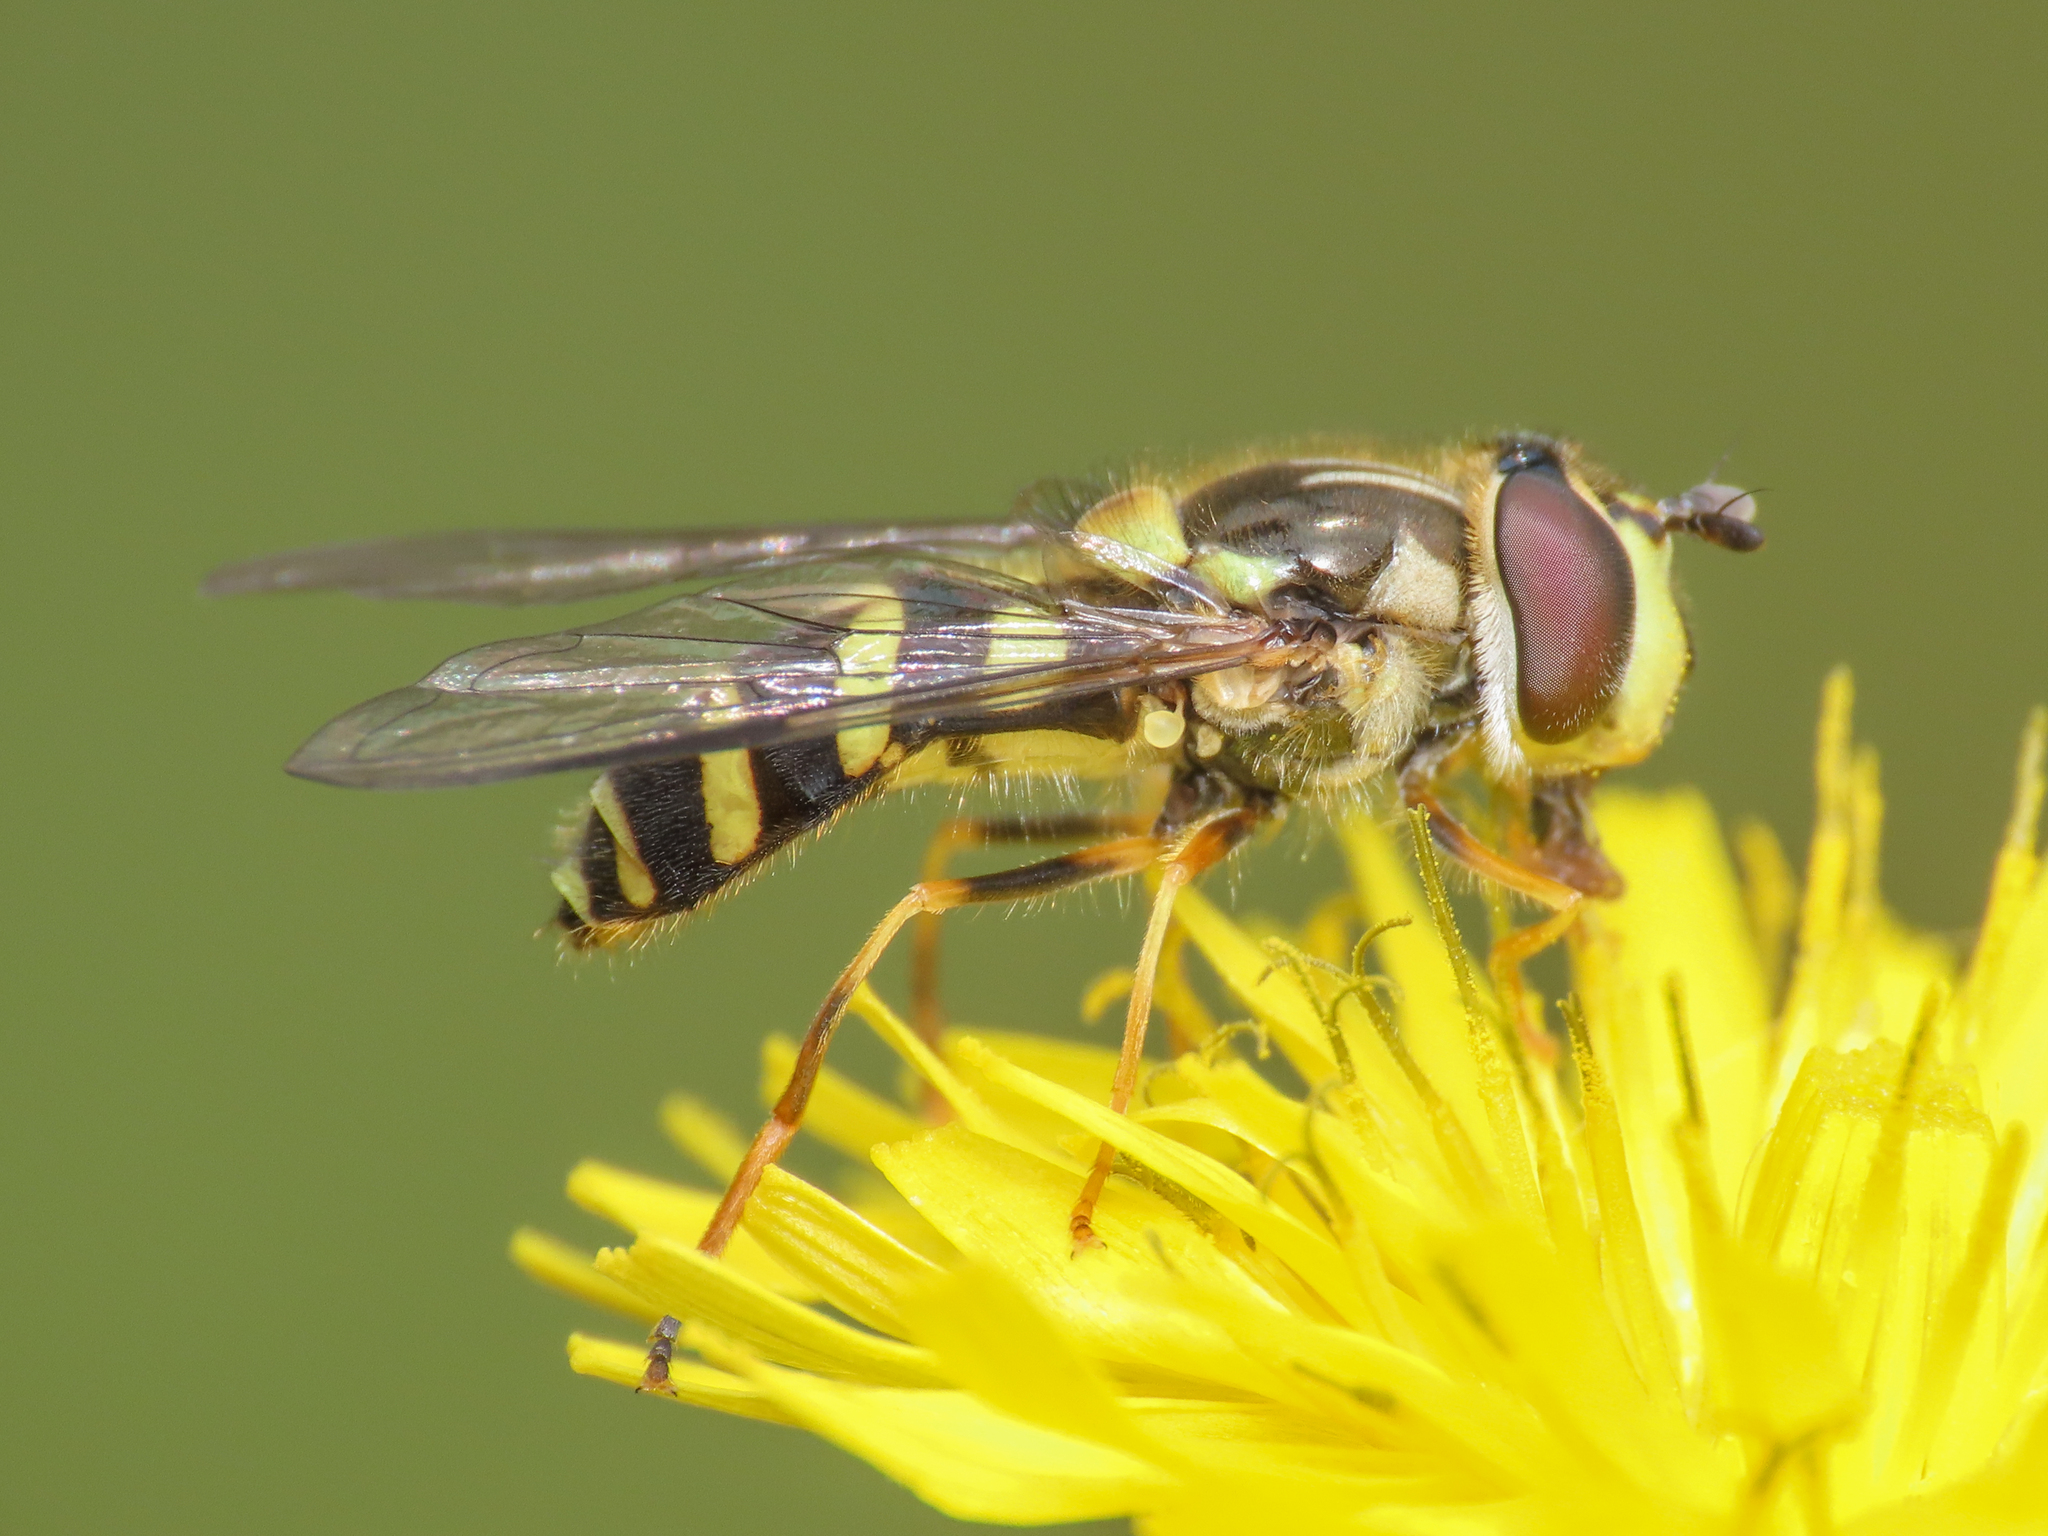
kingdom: Animalia
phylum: Arthropoda
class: Insecta
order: Diptera
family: Syrphidae
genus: Dasysyrphus
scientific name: Dasysyrphus albostriatus
